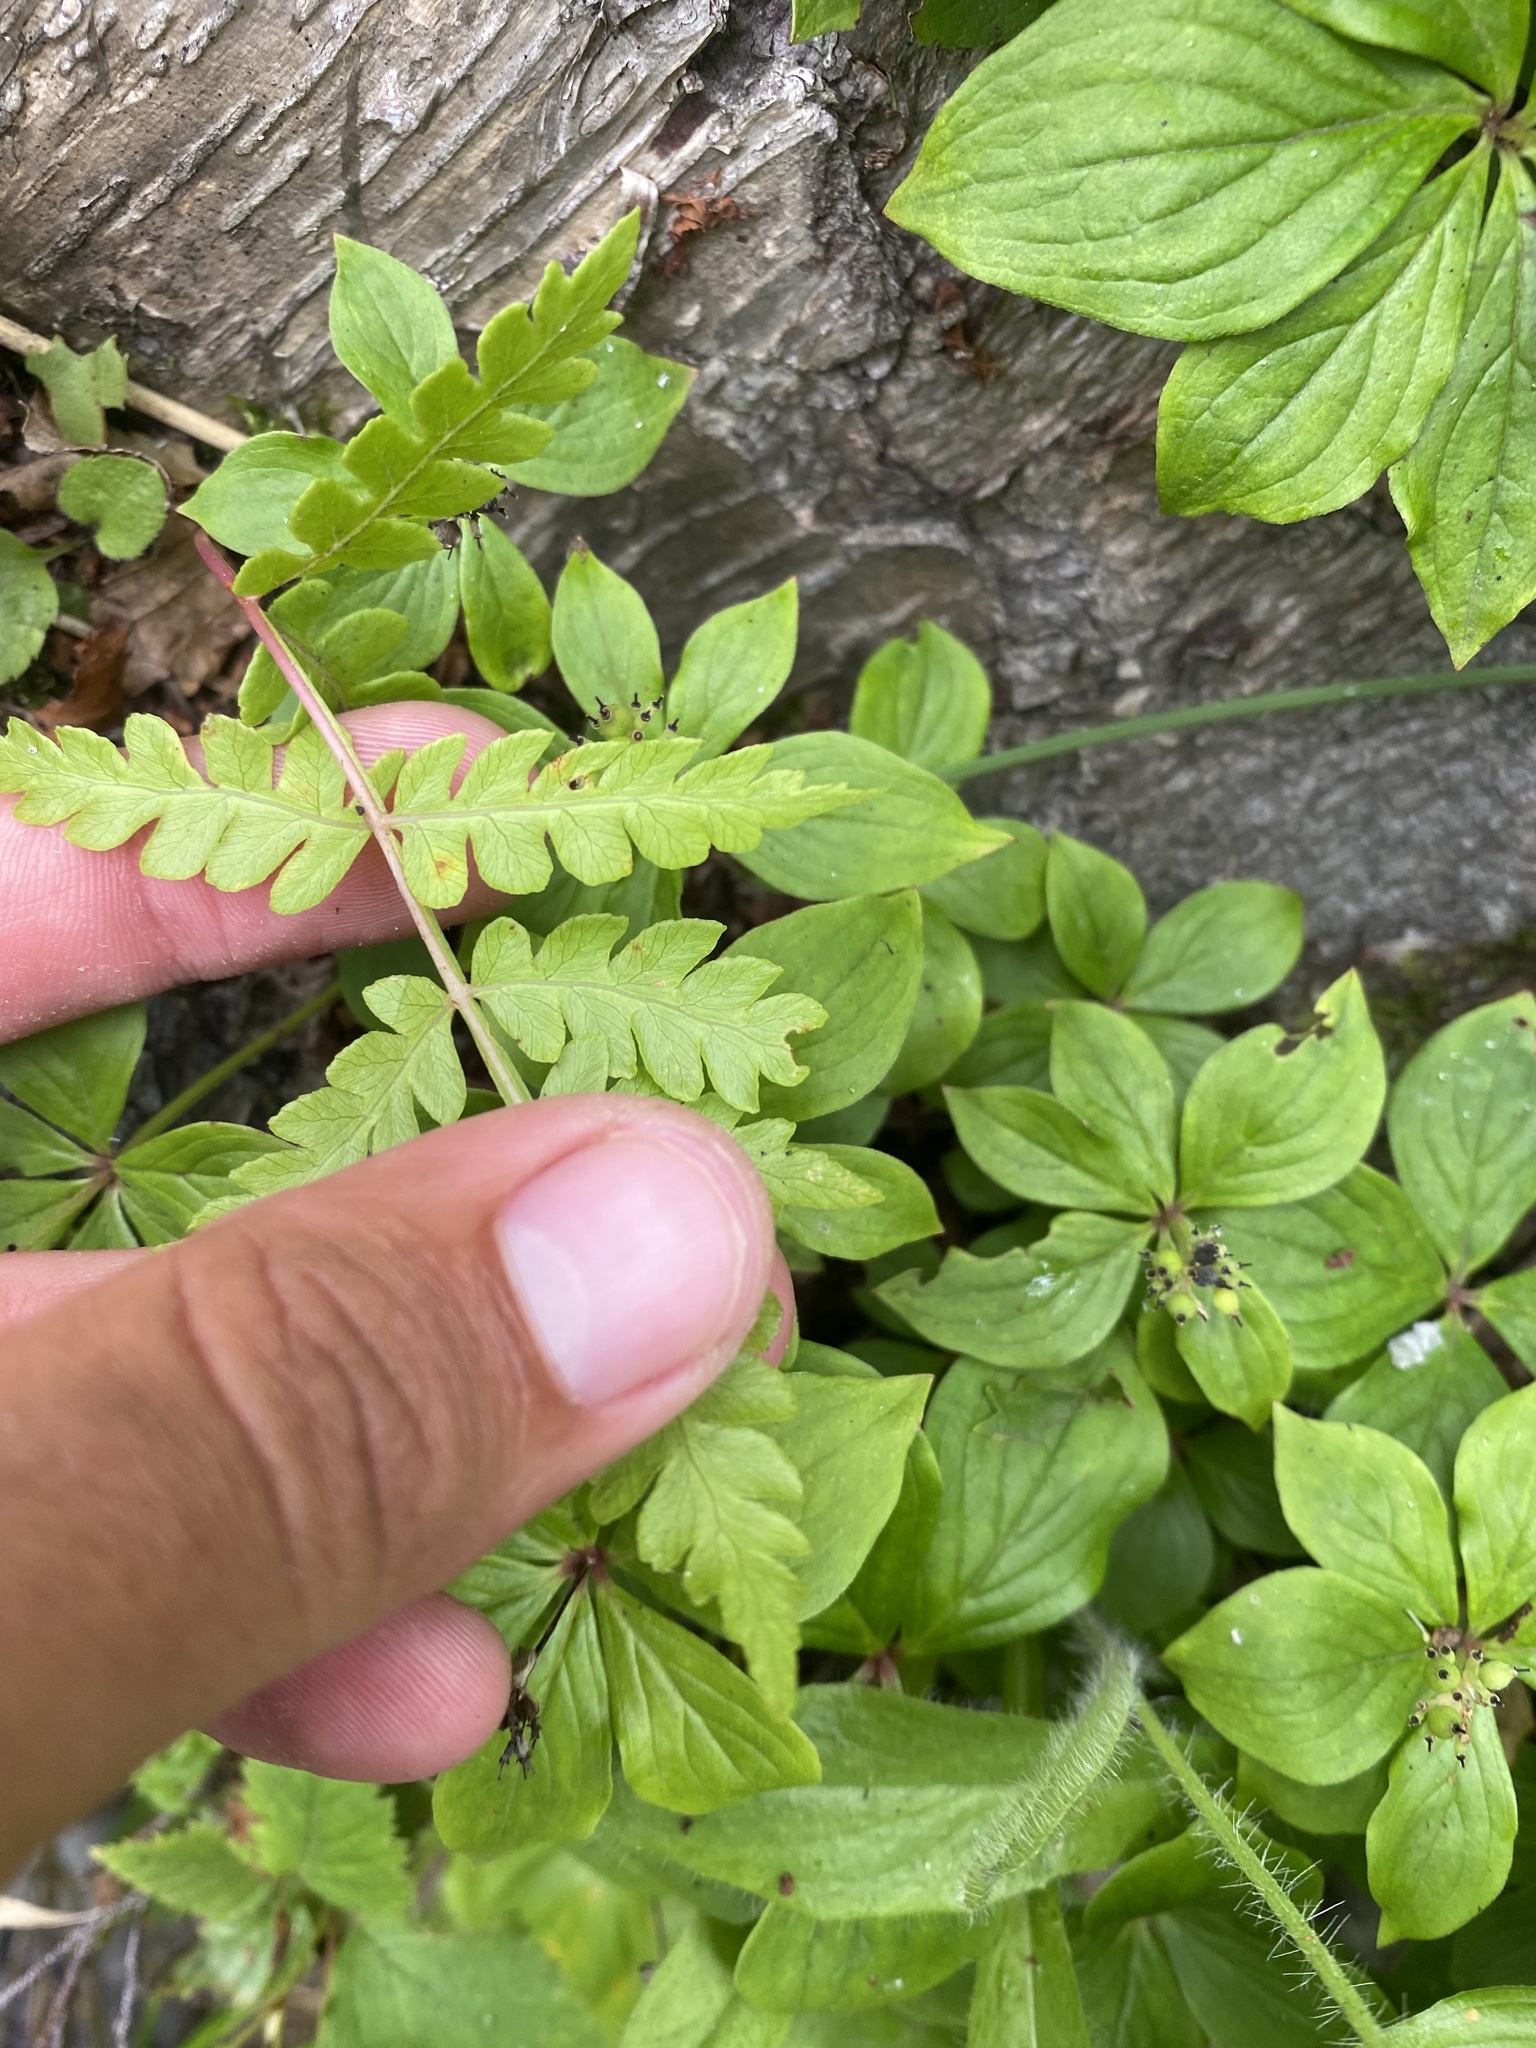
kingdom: Plantae
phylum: Tracheophyta
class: Polypodiopsida
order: Osmundales
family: Osmundaceae
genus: Osmundastrum
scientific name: Osmundastrum cinnamomeum
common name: Cinnamon fern
